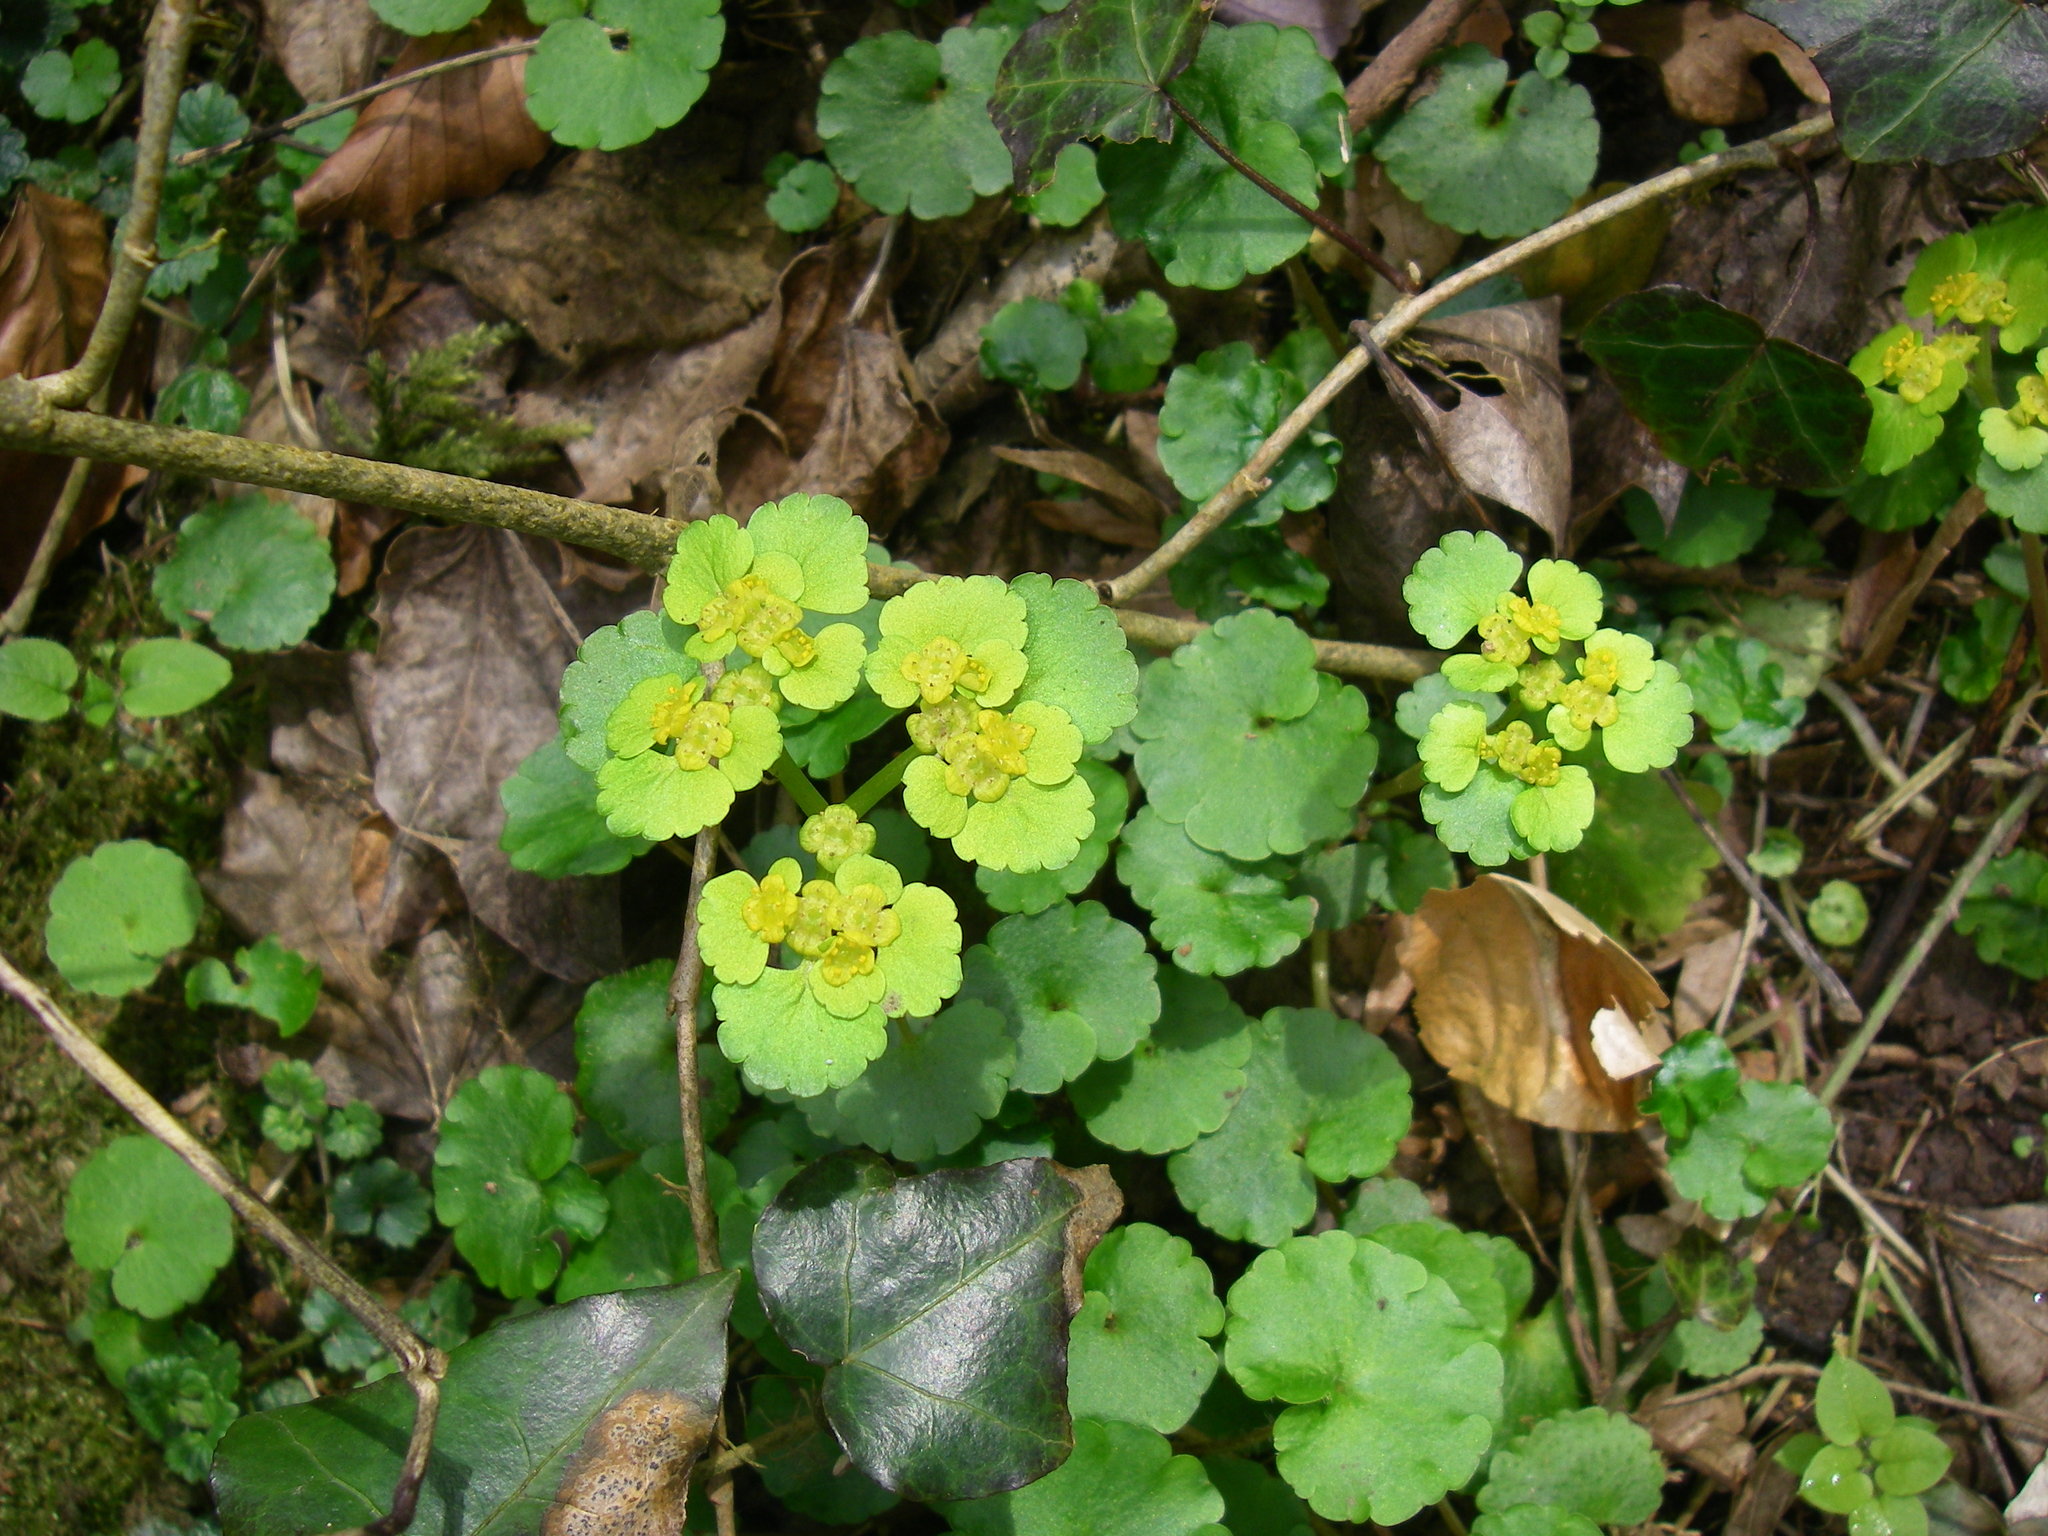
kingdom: Plantae
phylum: Tracheophyta
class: Magnoliopsida
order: Saxifragales
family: Saxifragaceae
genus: Chrysosplenium
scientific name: Chrysosplenium alternifolium
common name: Alternate-leaved golden-saxifrage
